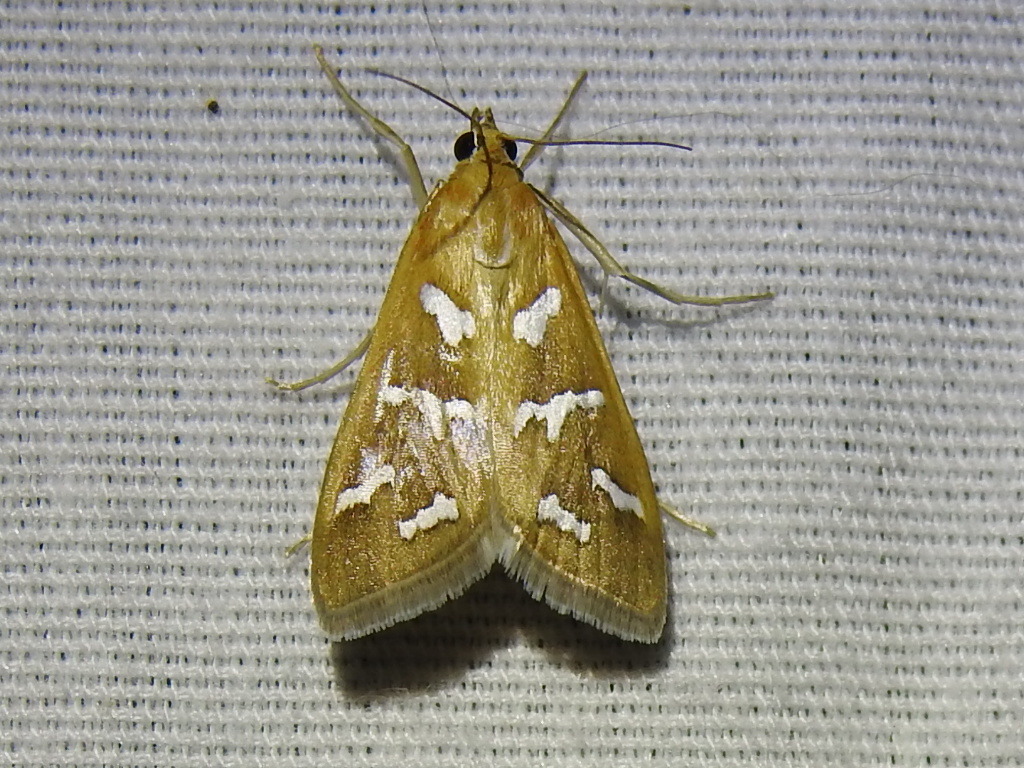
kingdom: Animalia
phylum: Arthropoda
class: Insecta
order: Lepidoptera
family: Crambidae
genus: Diastictis
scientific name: Diastictis fracturalis
